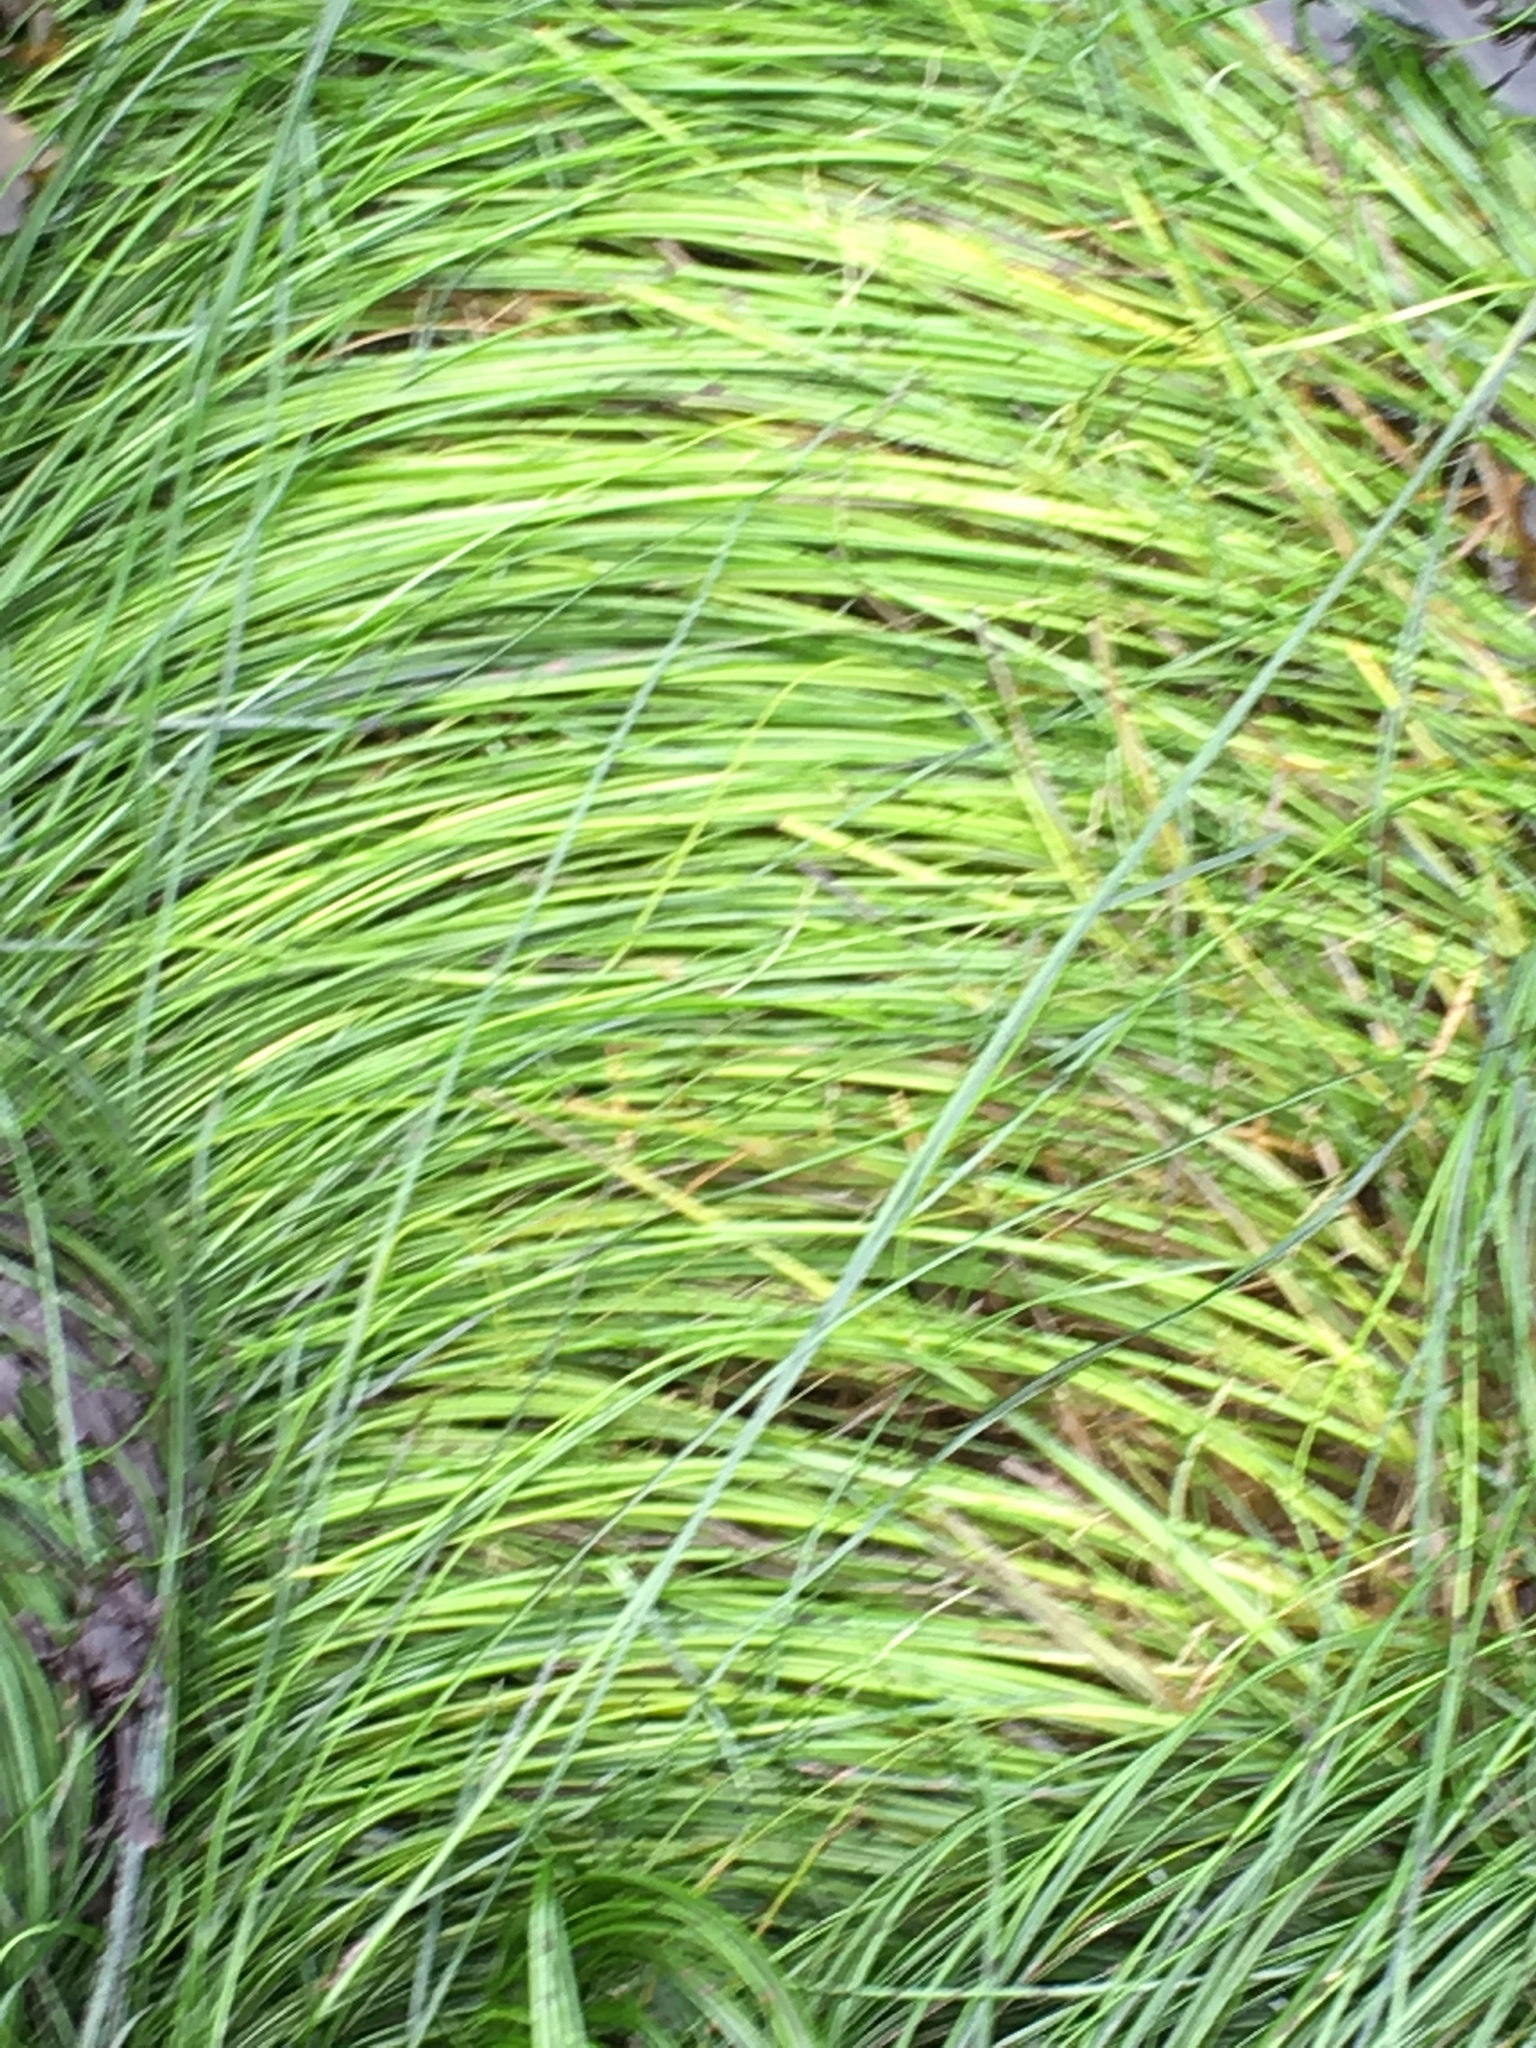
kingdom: Plantae
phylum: Tracheophyta
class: Liliopsida
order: Alismatales
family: Zosteraceae
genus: Phyllospadix
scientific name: Phyllospadix torreyi
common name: Surfgrass
